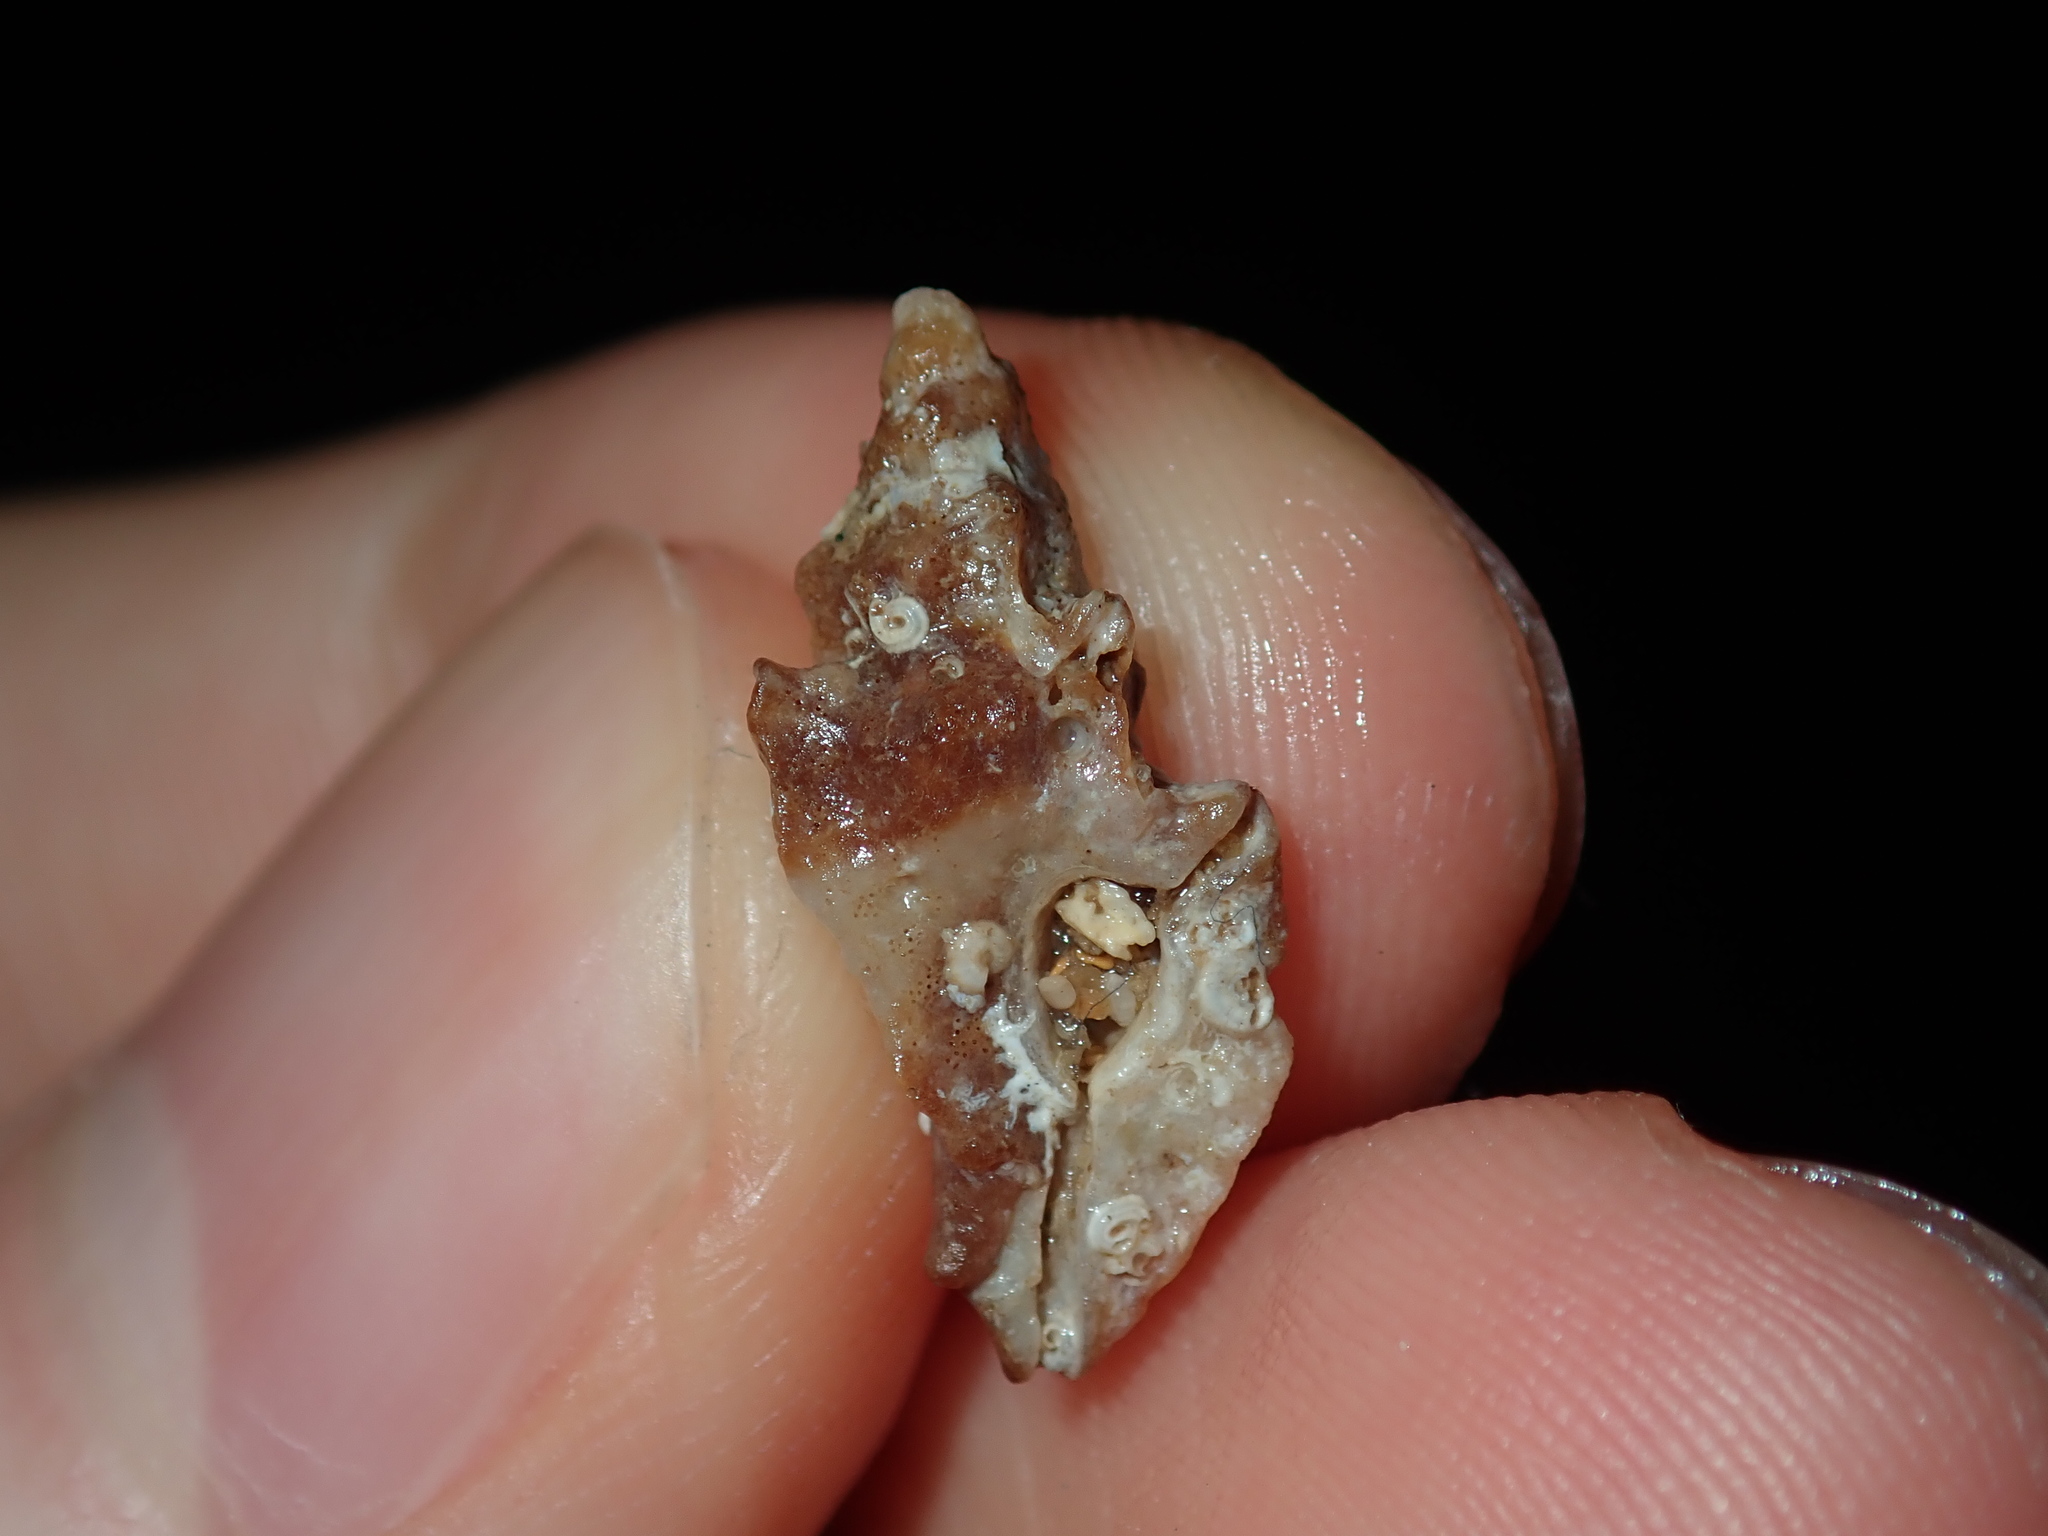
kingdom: Animalia
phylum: Mollusca
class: Gastropoda
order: Neogastropoda
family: Muricidae
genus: Prototyphis
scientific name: Prototyphis angasi
